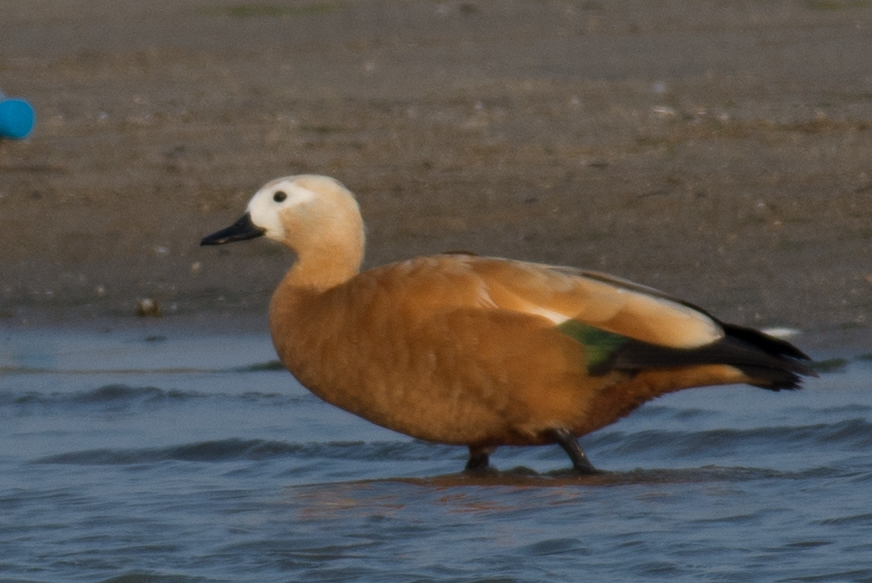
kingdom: Animalia
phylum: Chordata
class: Aves
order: Anseriformes
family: Anatidae
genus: Tadorna
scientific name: Tadorna ferruginea
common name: Ruddy shelduck
